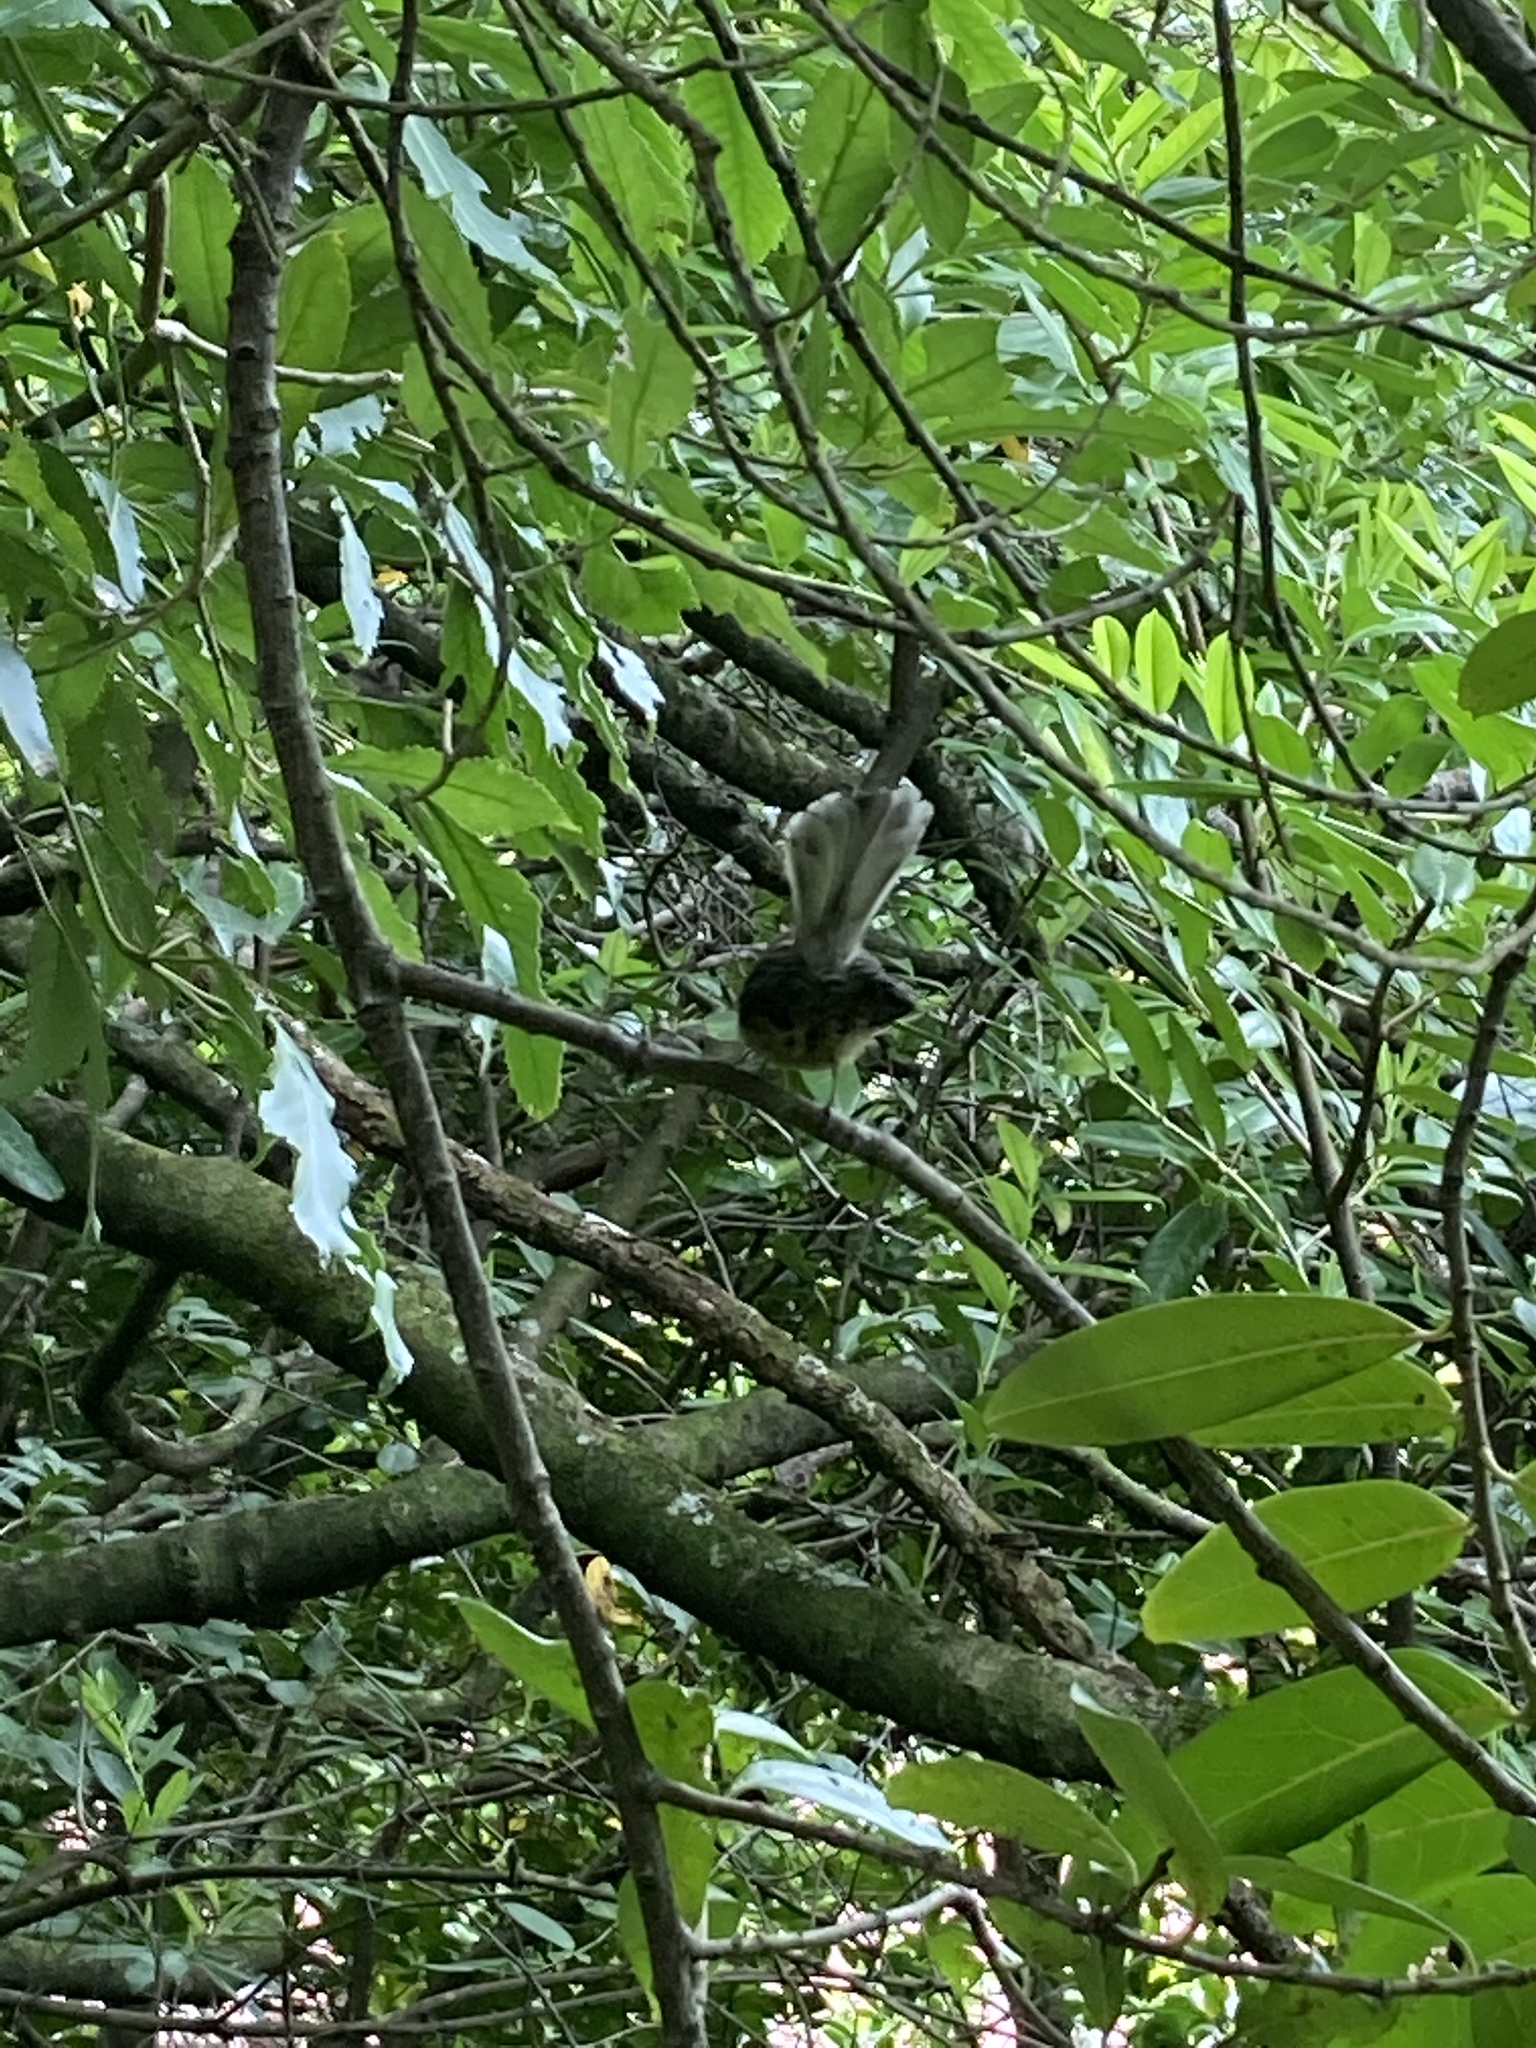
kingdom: Animalia
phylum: Chordata
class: Aves
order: Passeriformes
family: Rhipiduridae
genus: Rhipidura
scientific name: Rhipidura fuliginosa
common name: New zealand fantail
